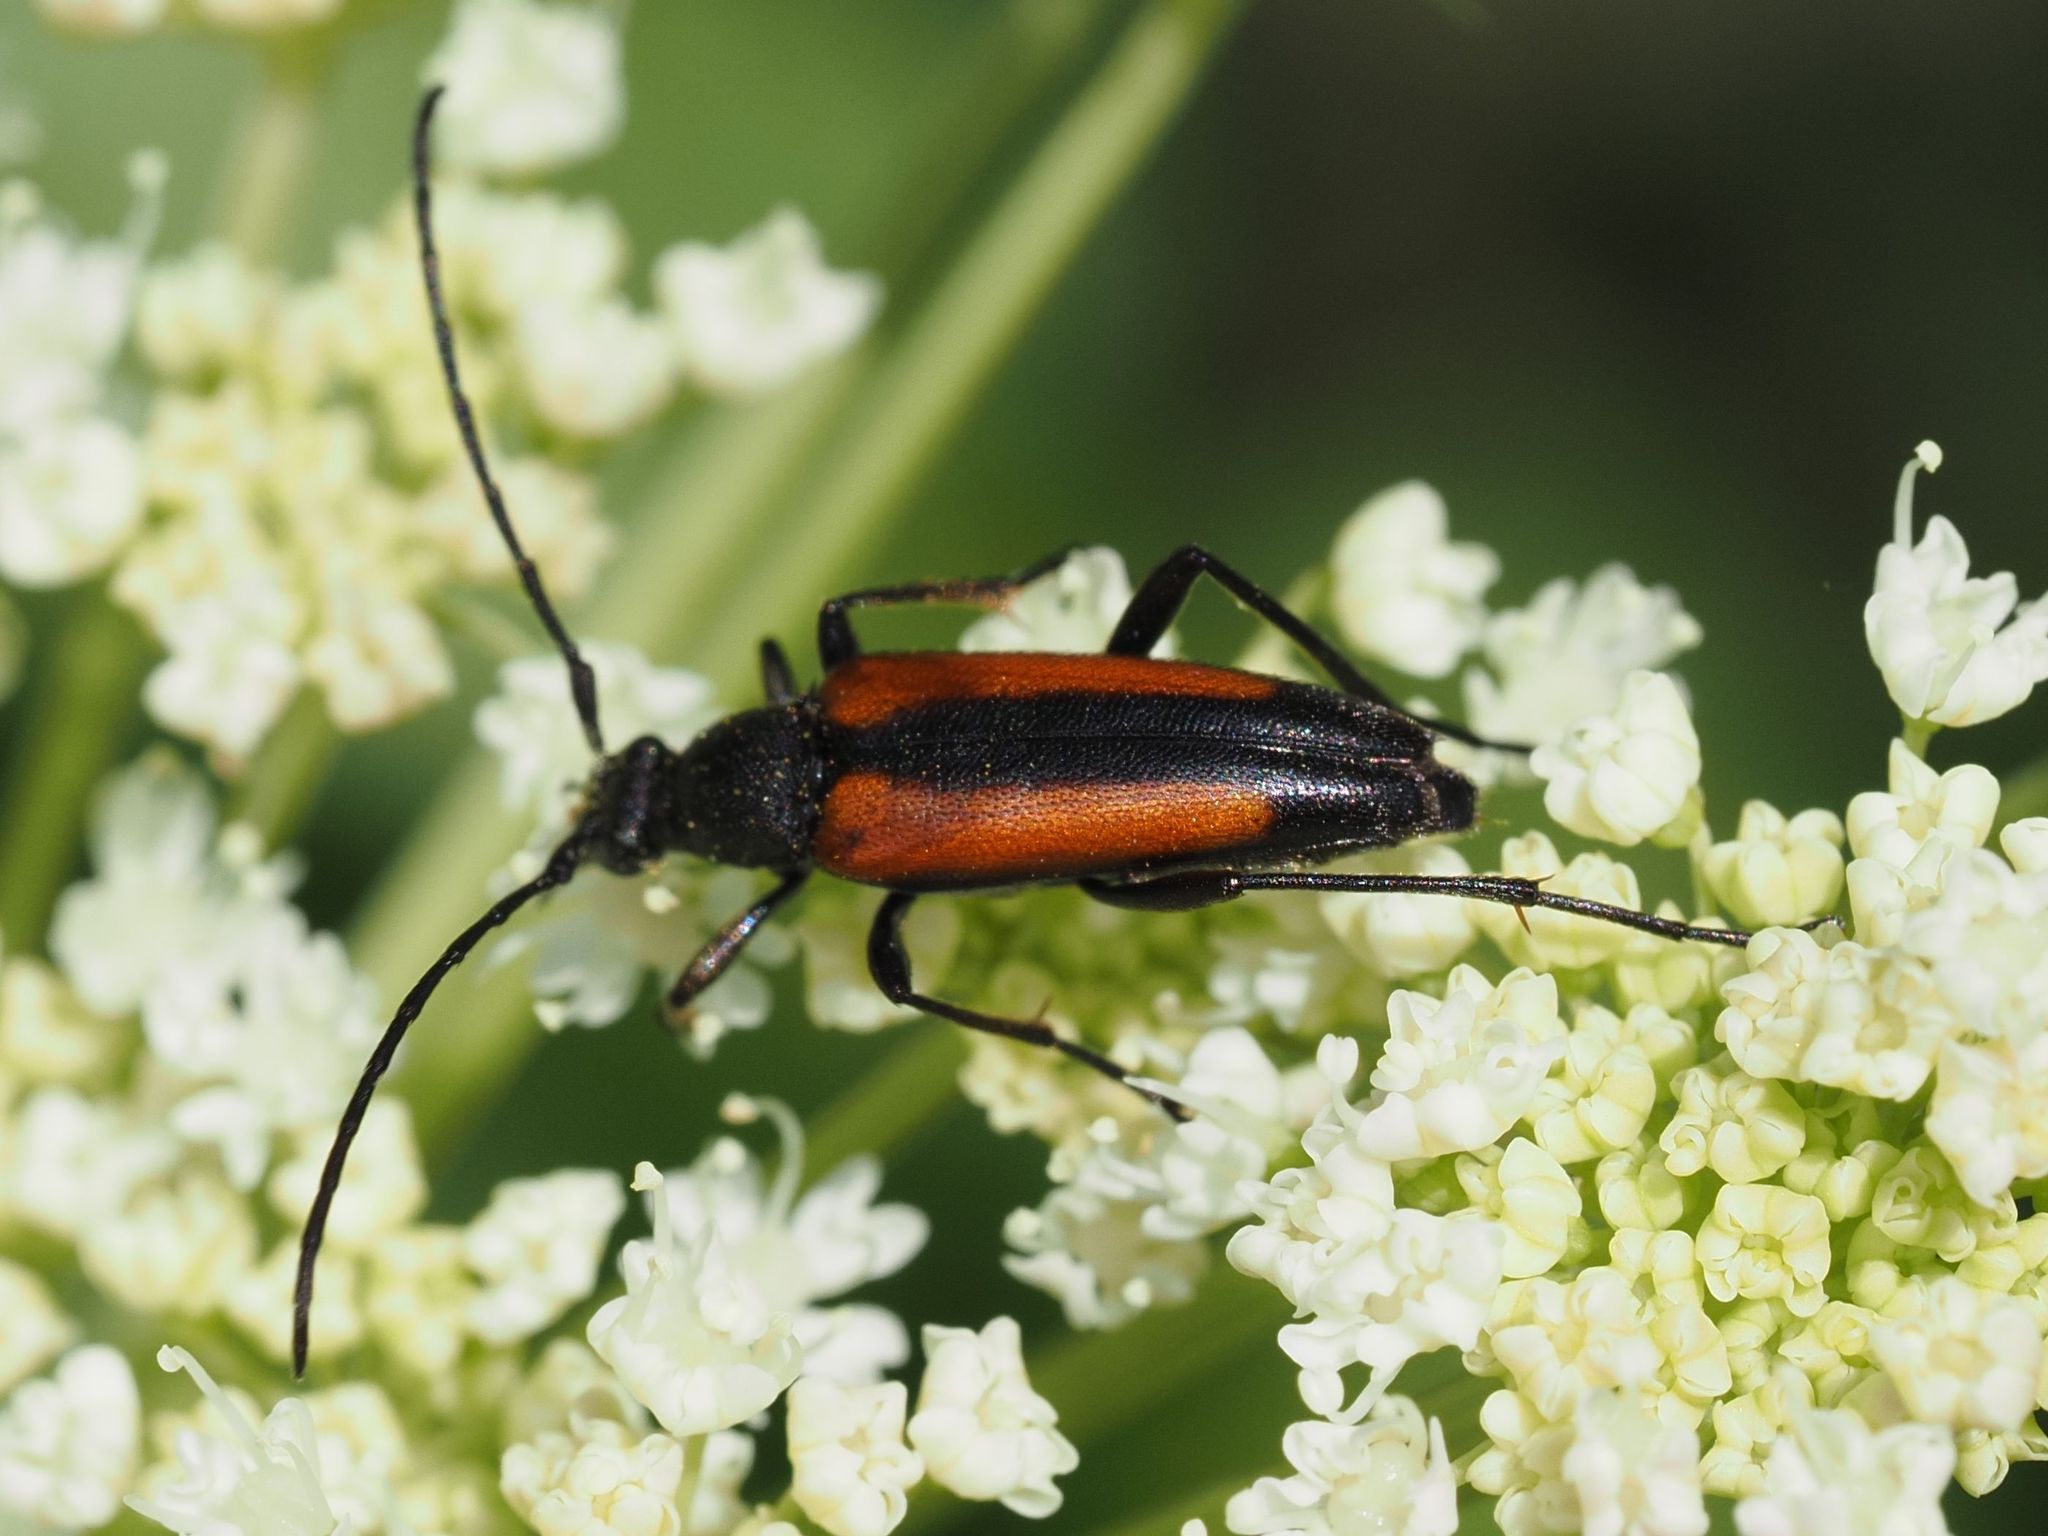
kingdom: Animalia
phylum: Arthropoda
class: Insecta
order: Coleoptera
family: Cerambycidae
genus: Stenurella
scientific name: Stenurella melanura
